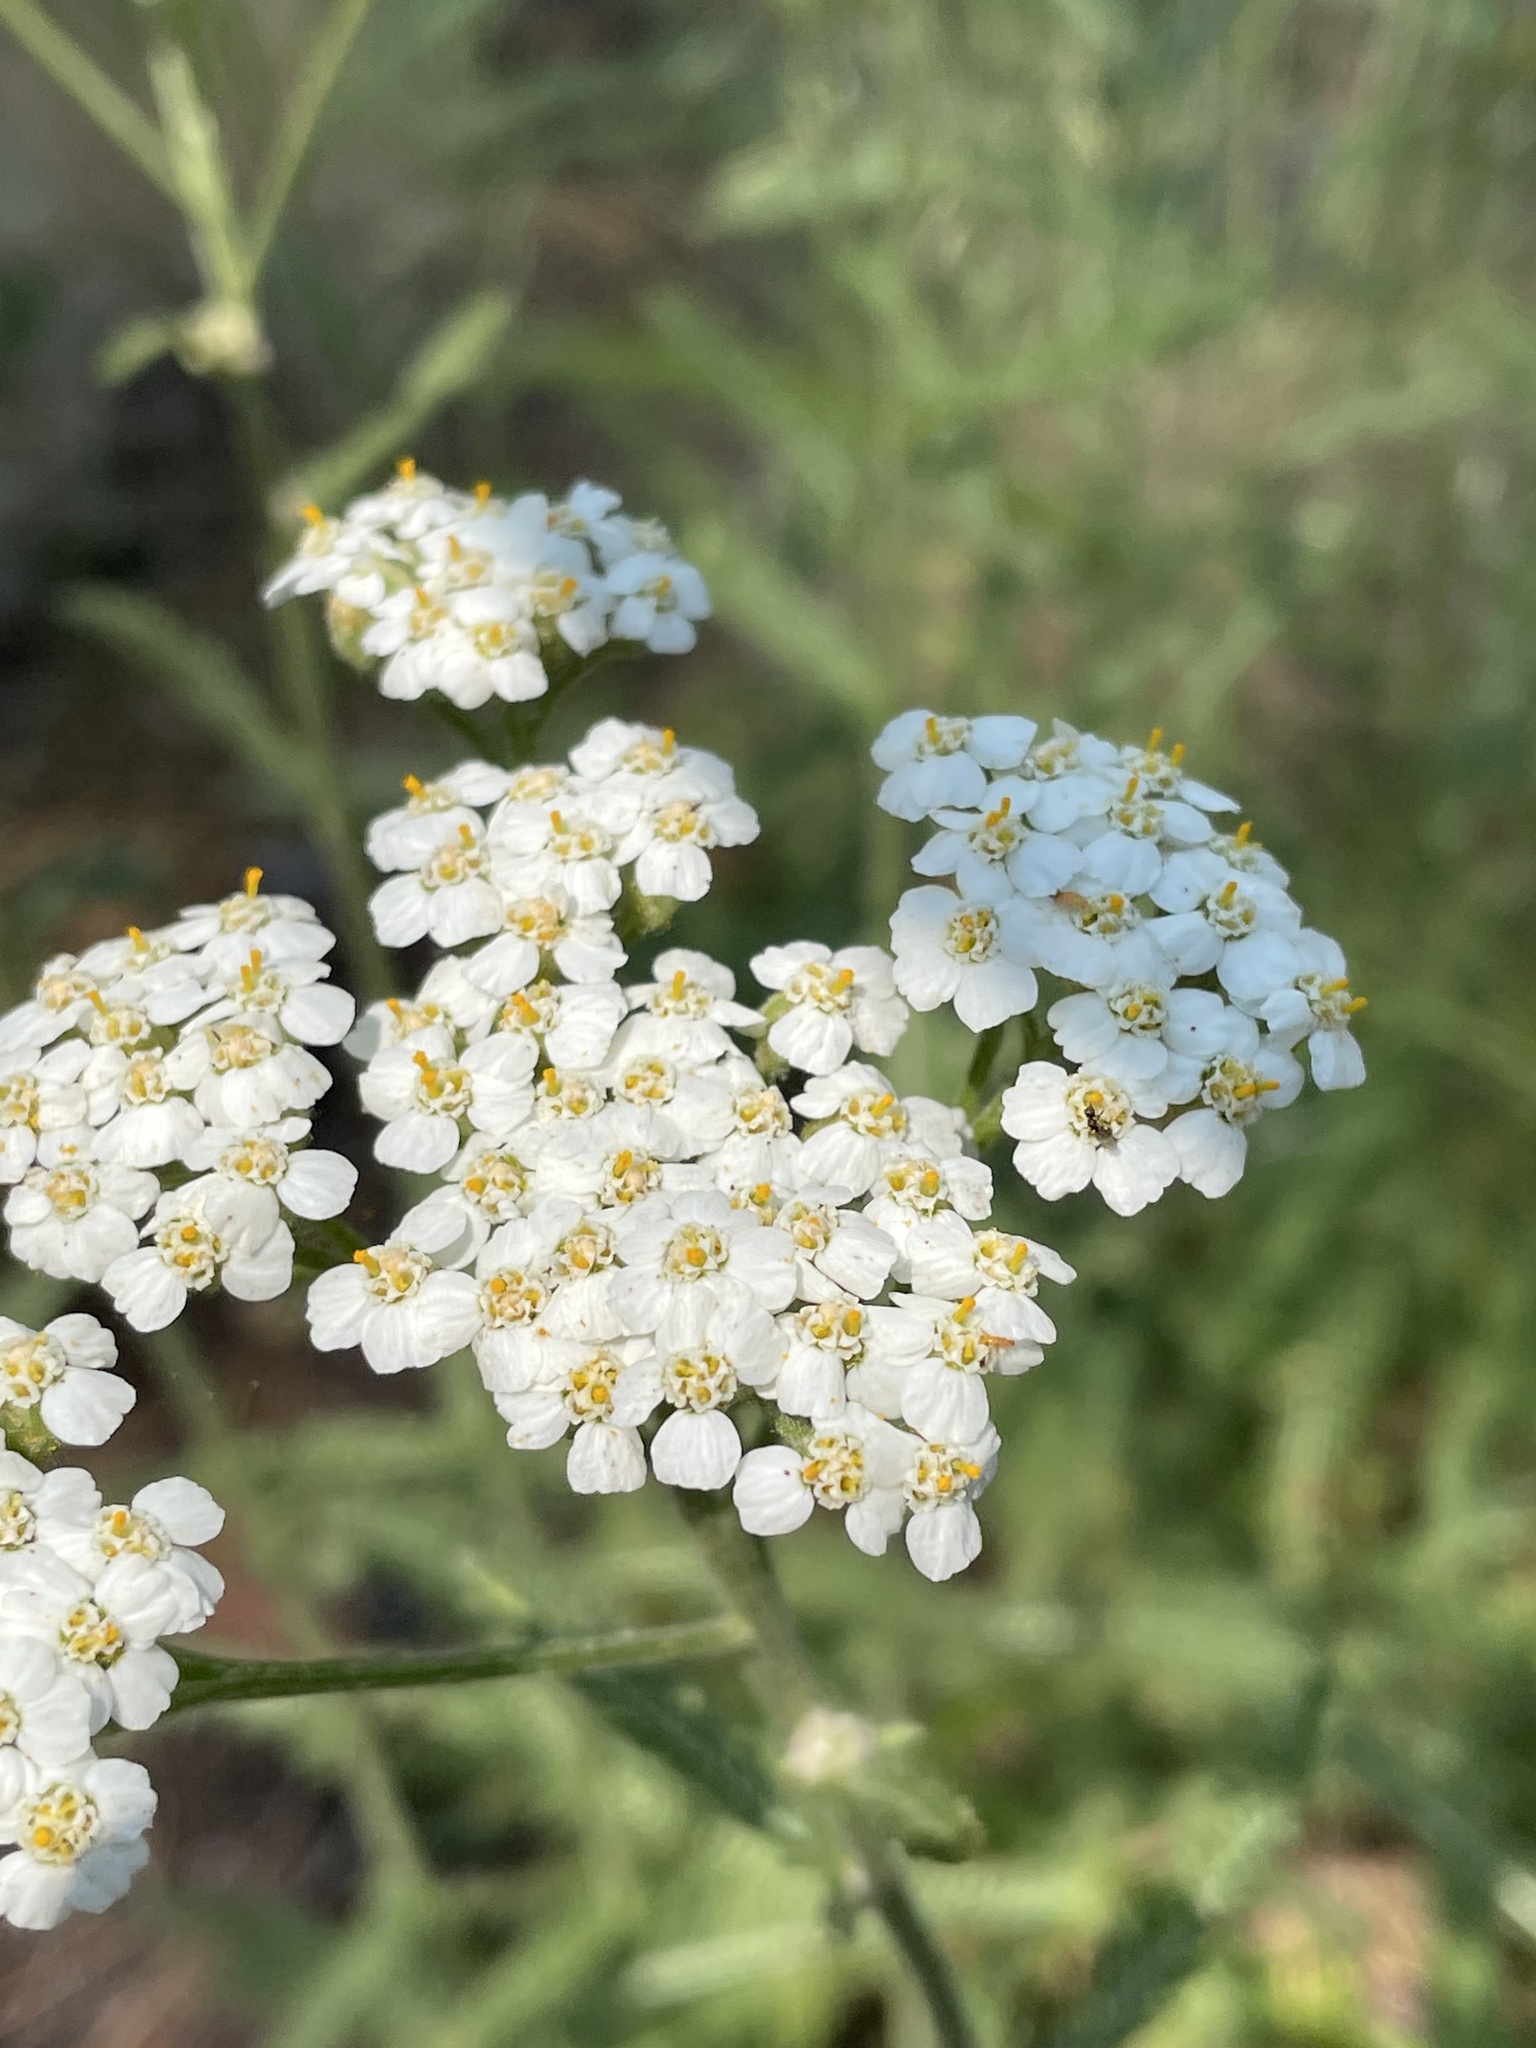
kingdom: Plantae
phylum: Tracheophyta
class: Magnoliopsida
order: Asterales
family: Asteraceae
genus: Achillea
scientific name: Achillea millefolium
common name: Yarrow
